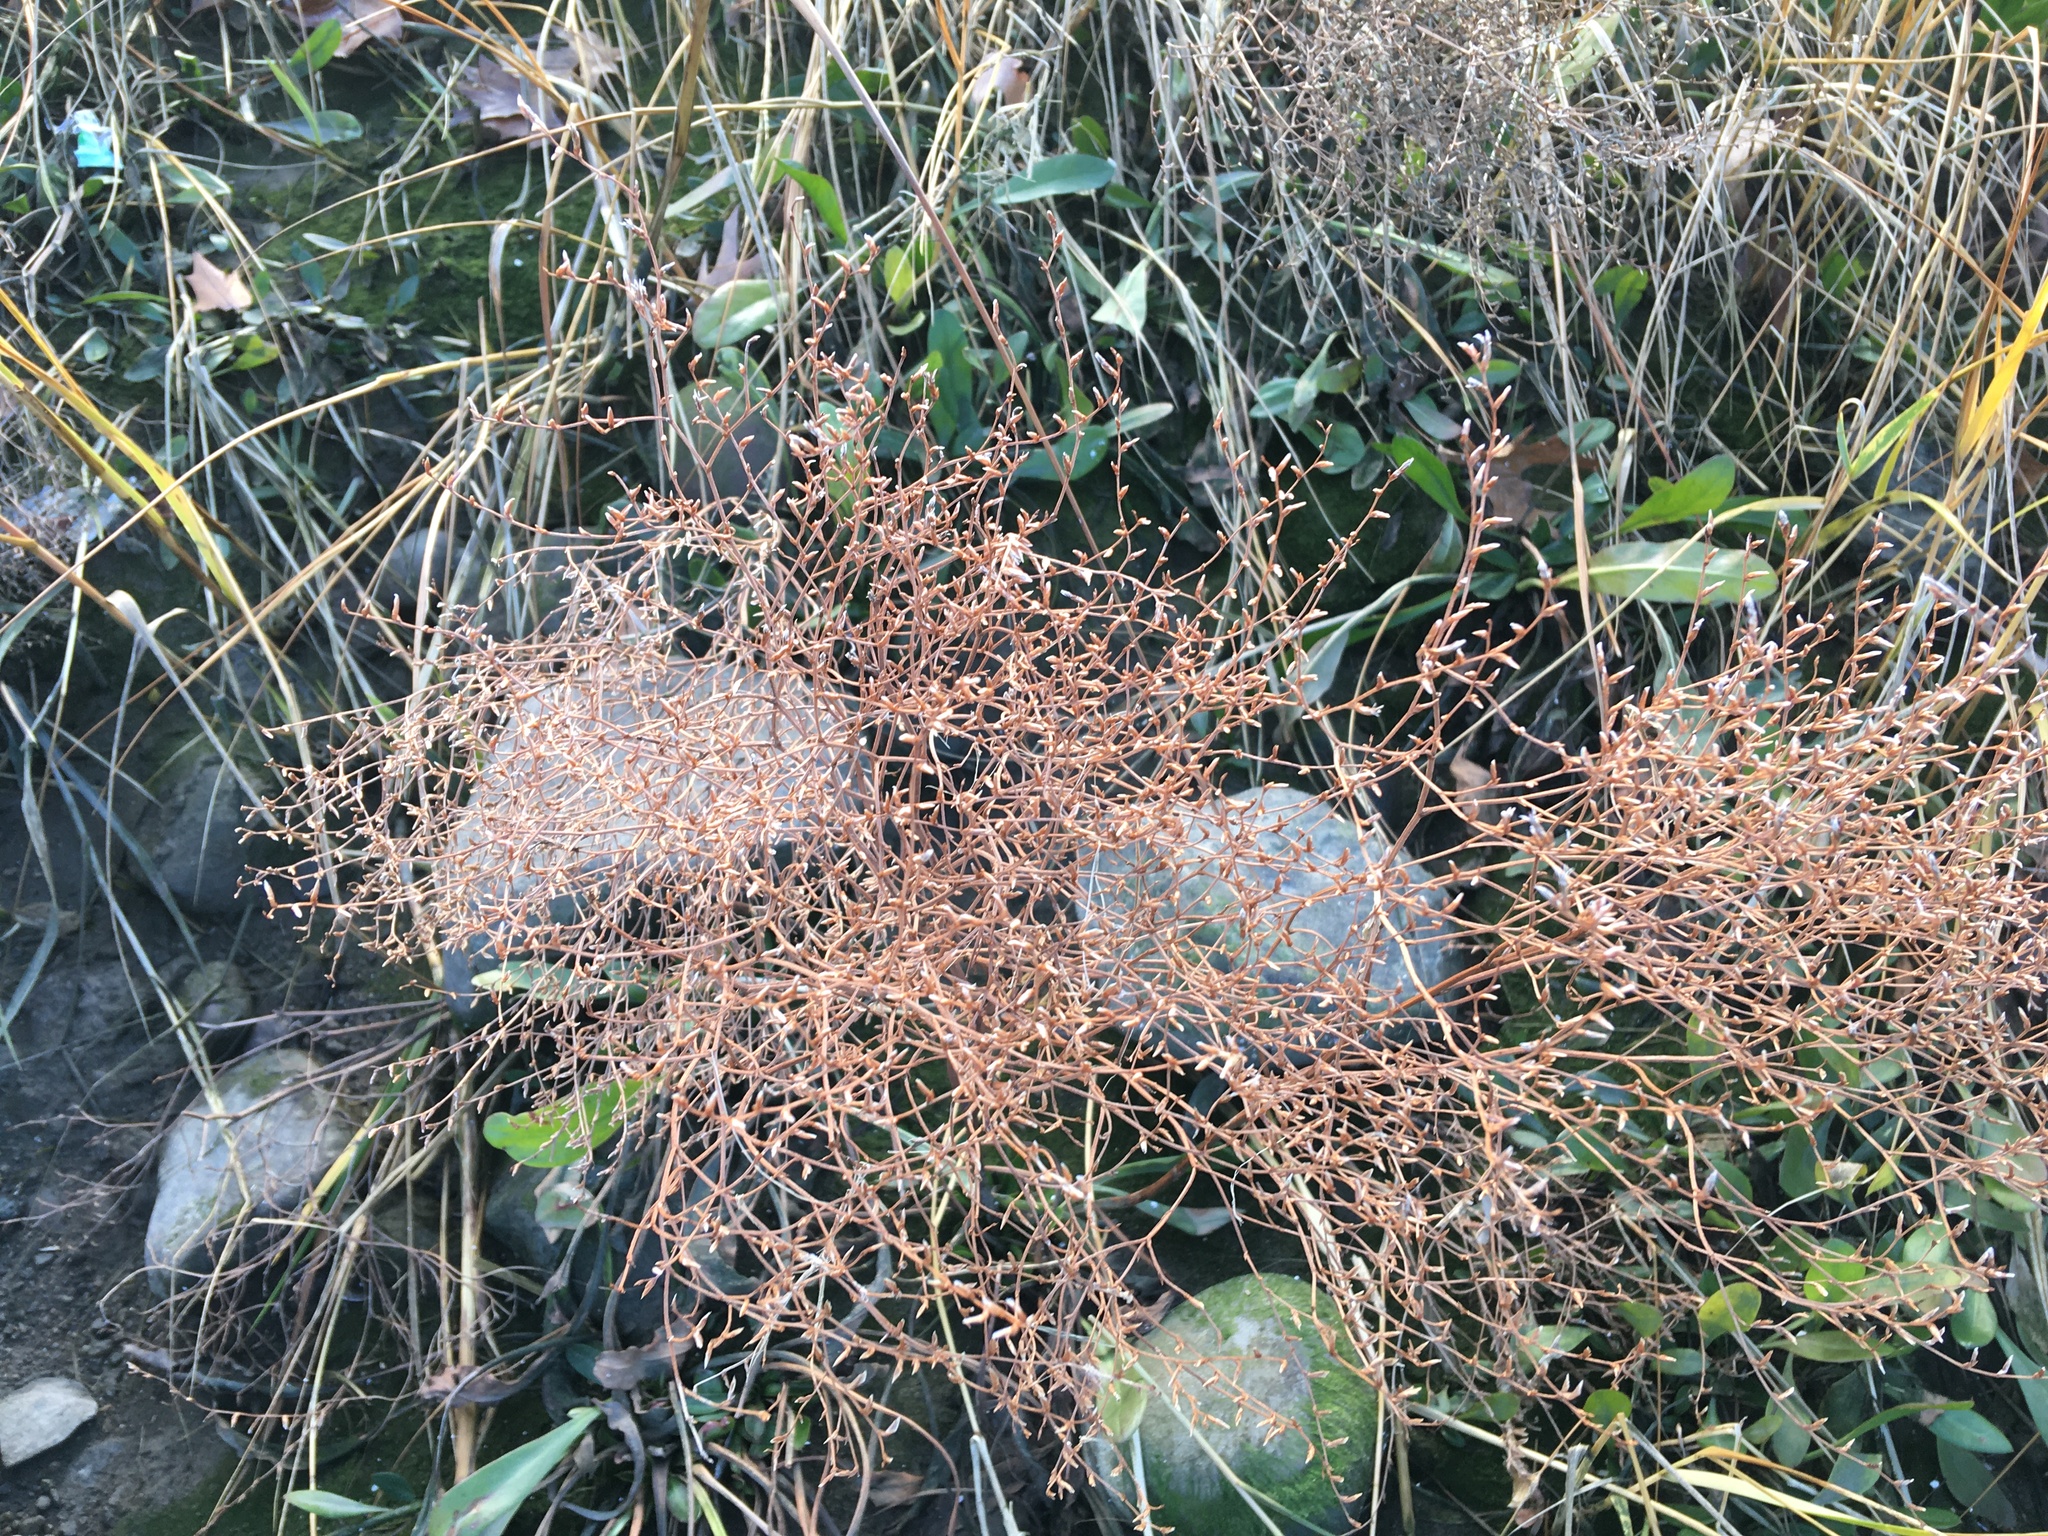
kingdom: Plantae
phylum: Tracheophyta
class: Magnoliopsida
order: Caryophyllales
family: Plumbaginaceae
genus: Limonium
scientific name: Limonium carolinianum
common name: Carolina sea lavender
